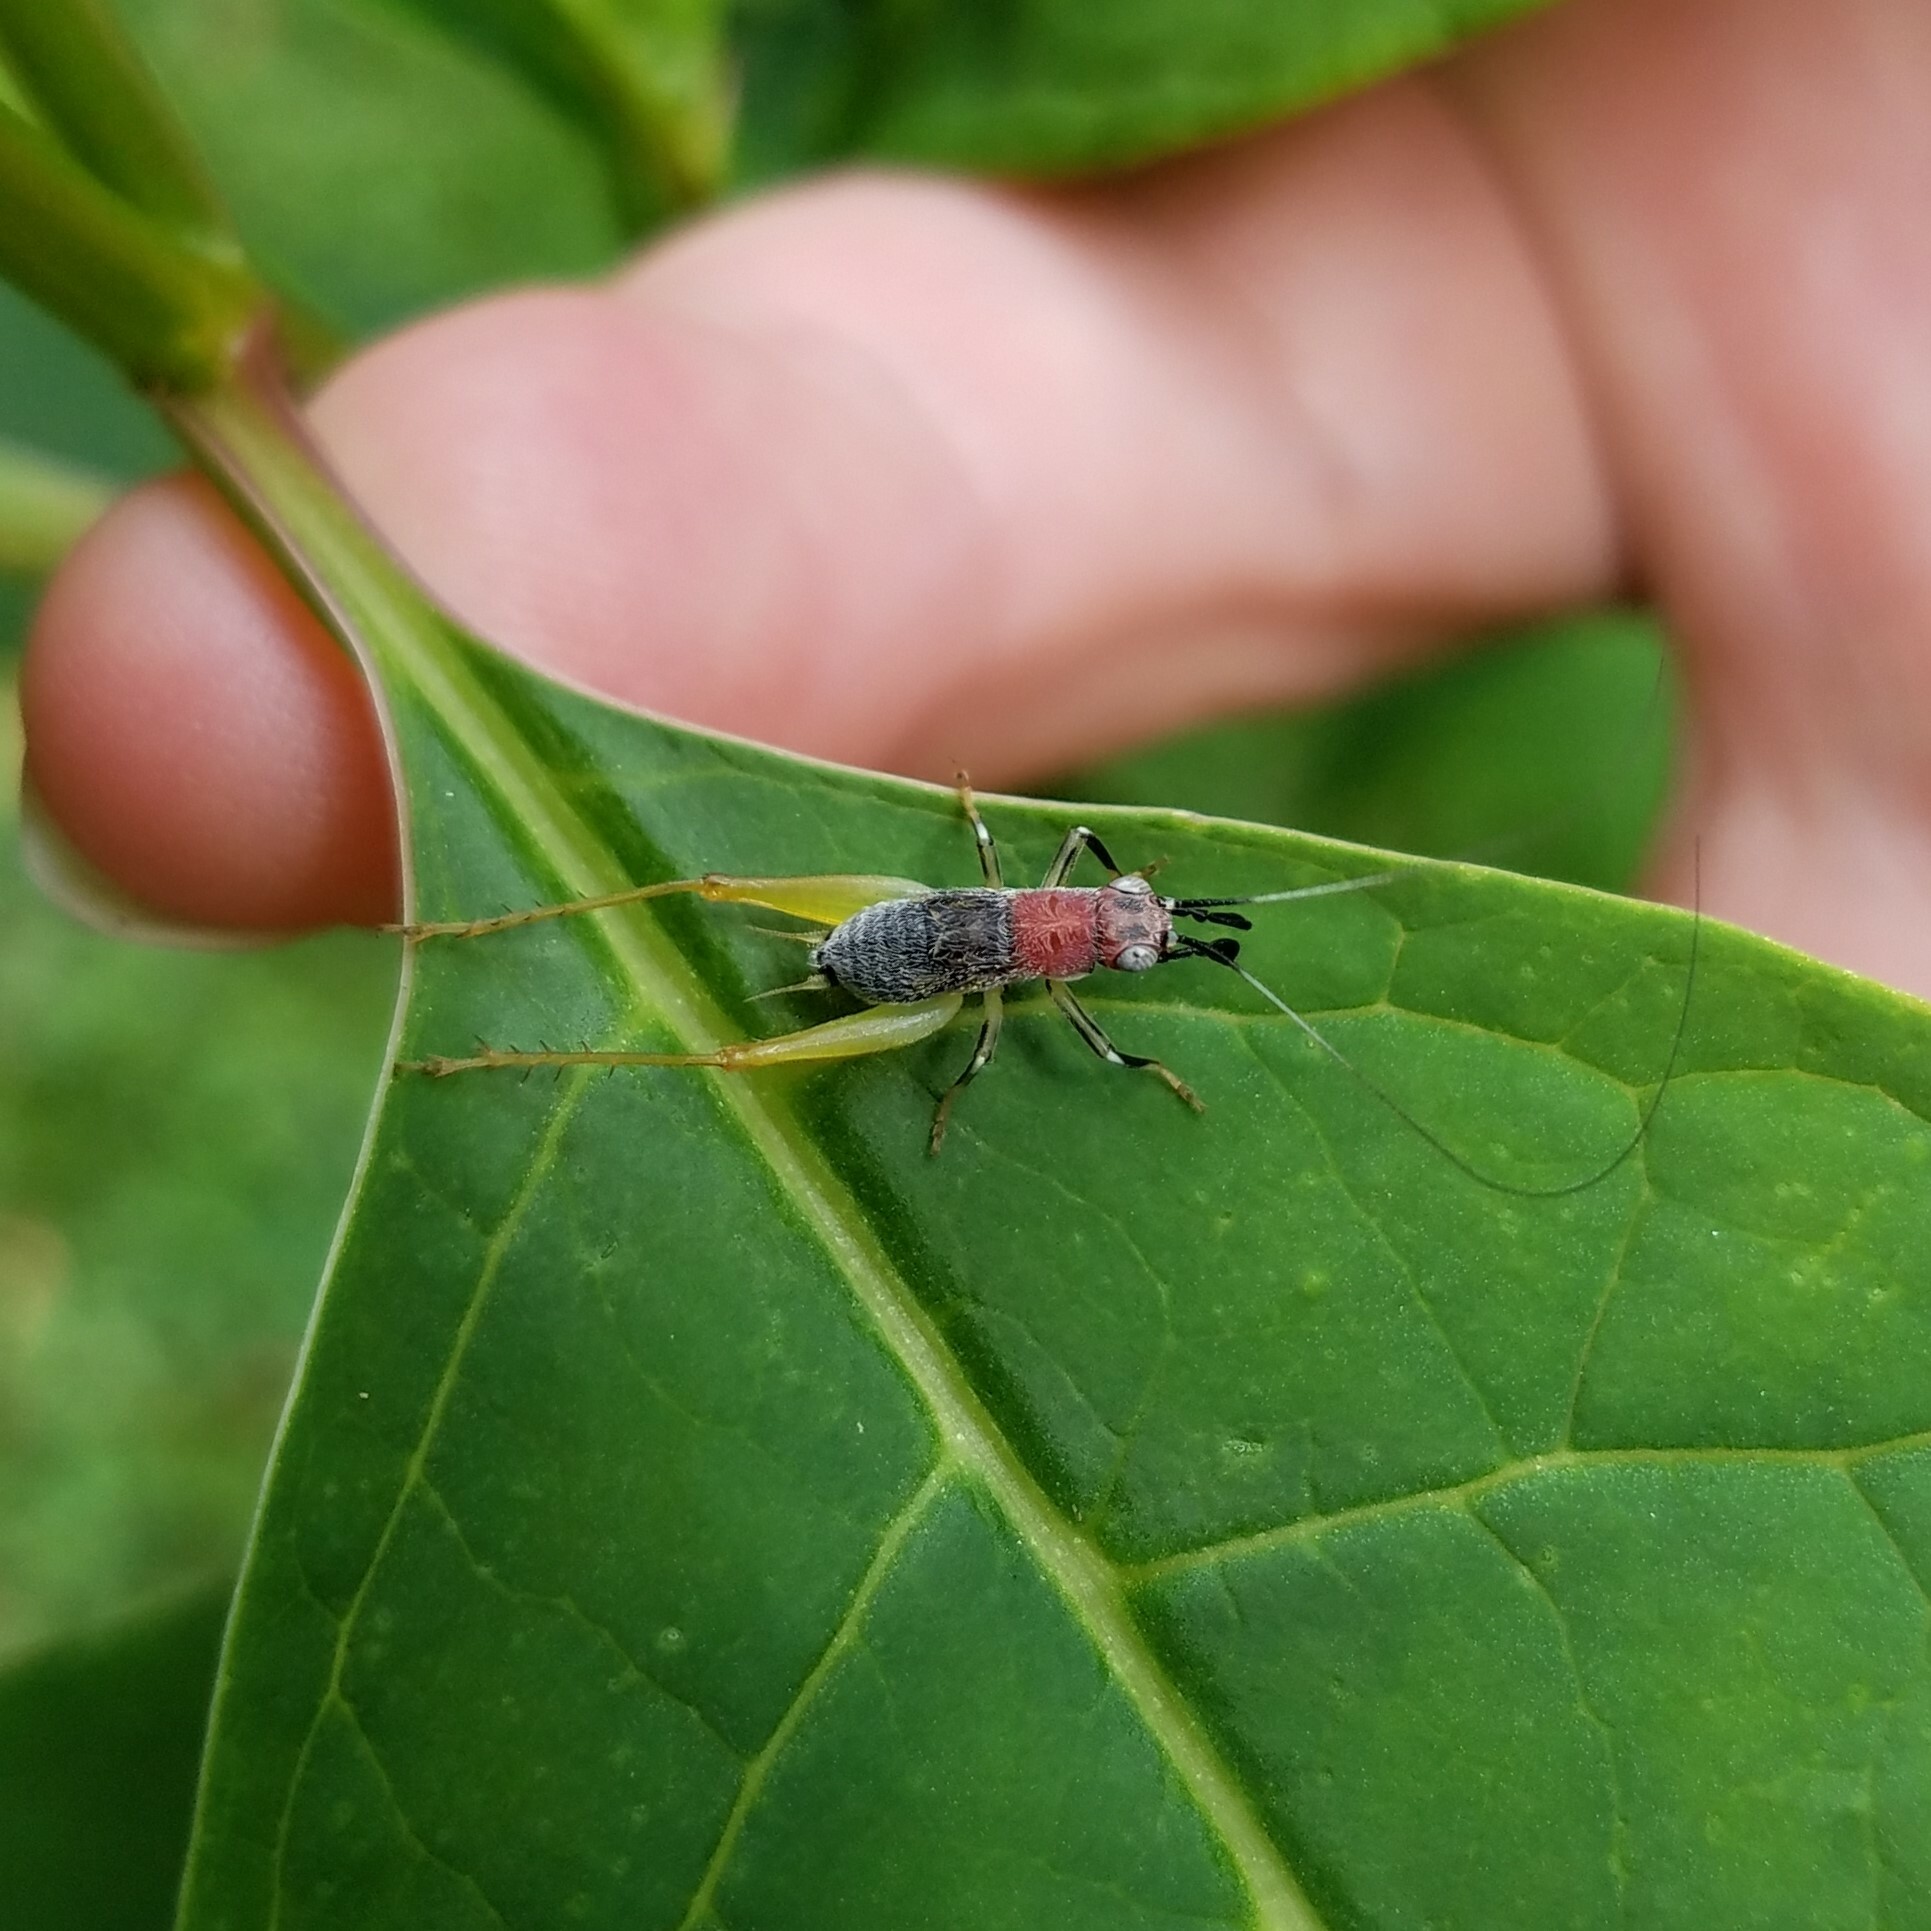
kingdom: Animalia
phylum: Arthropoda
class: Insecta
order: Orthoptera
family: Trigonidiidae
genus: Phyllopalpus
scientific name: Phyllopalpus pulchellus
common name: Handsome trig
